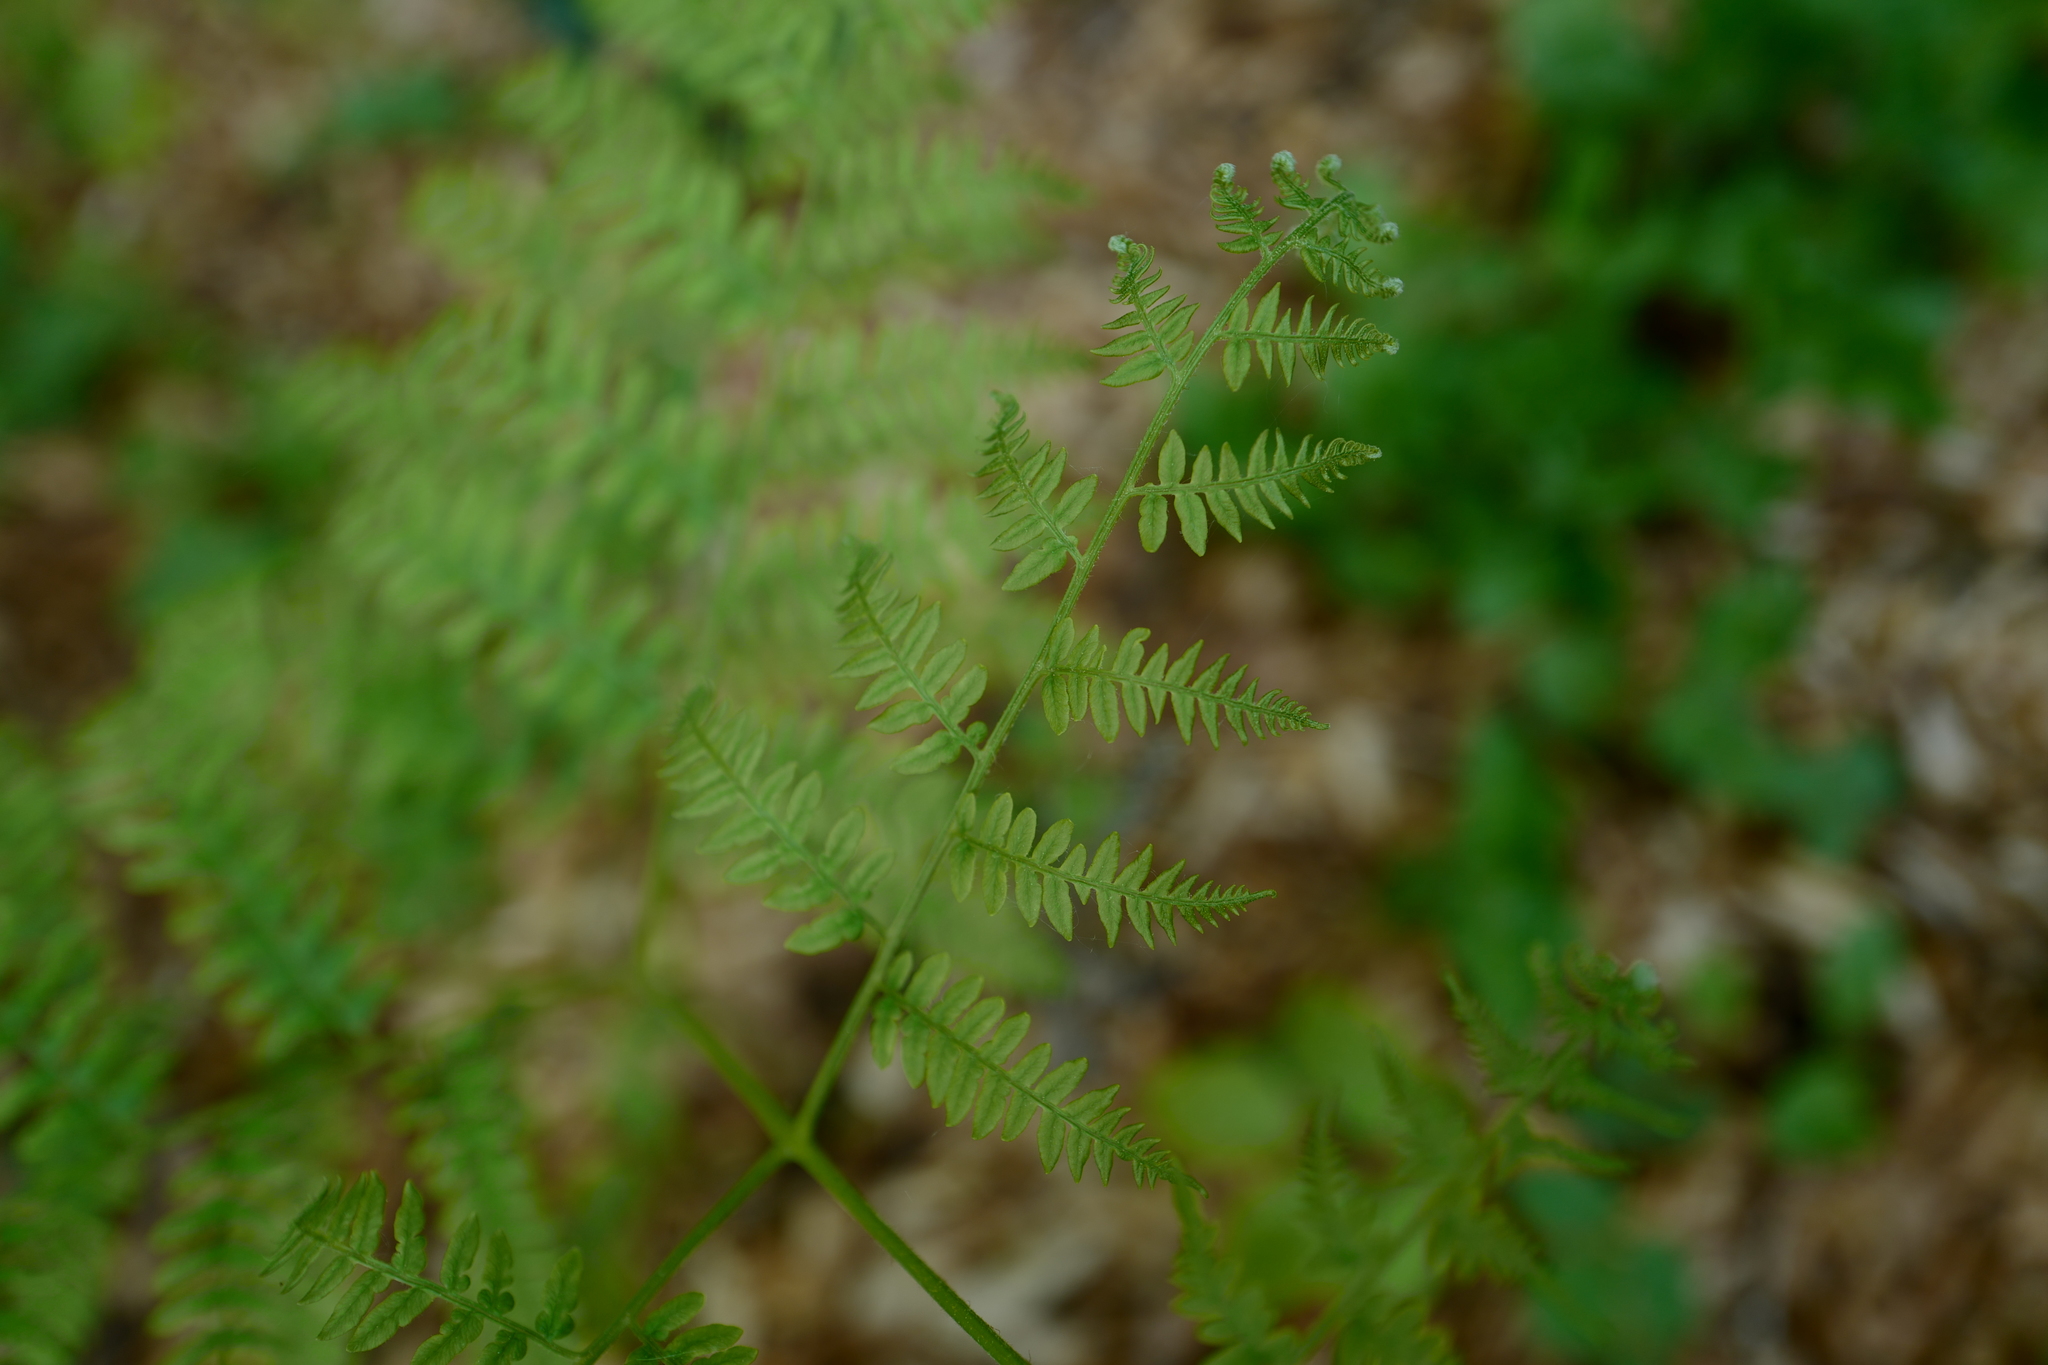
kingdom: Plantae
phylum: Tracheophyta
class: Polypodiopsida
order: Polypodiales
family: Dennstaedtiaceae
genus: Pteridium
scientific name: Pteridium aquilinum
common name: Bracken
